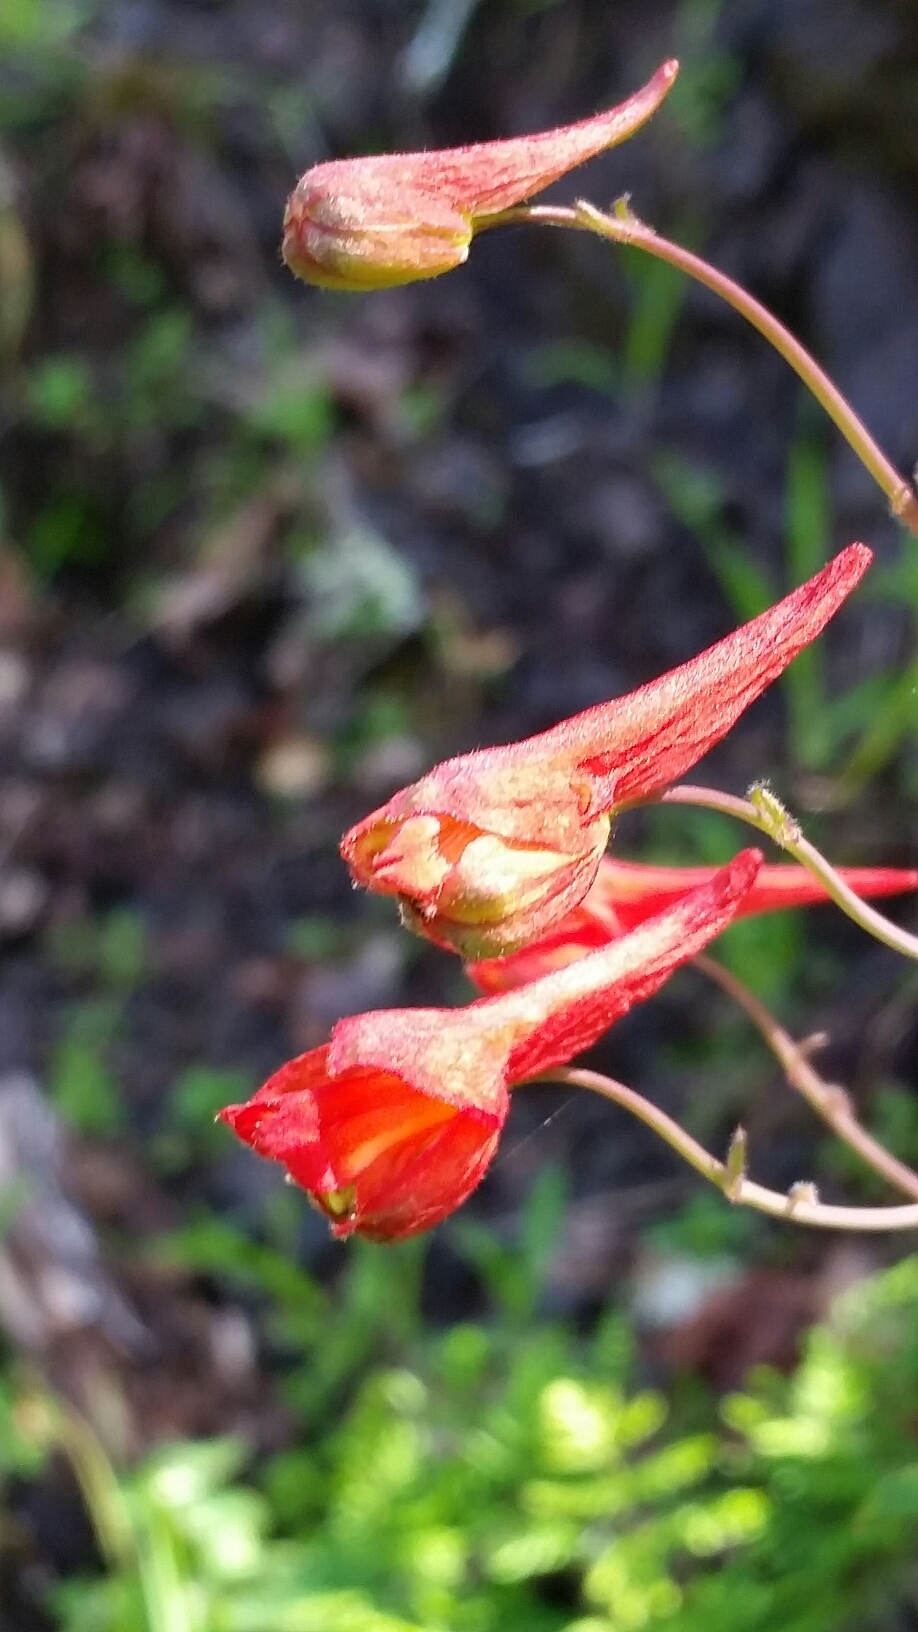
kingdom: Plantae
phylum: Tracheophyta
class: Magnoliopsida
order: Ranunculales
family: Ranunculaceae
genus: Delphinium
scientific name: Delphinium nudicaule
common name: Red larkspur
